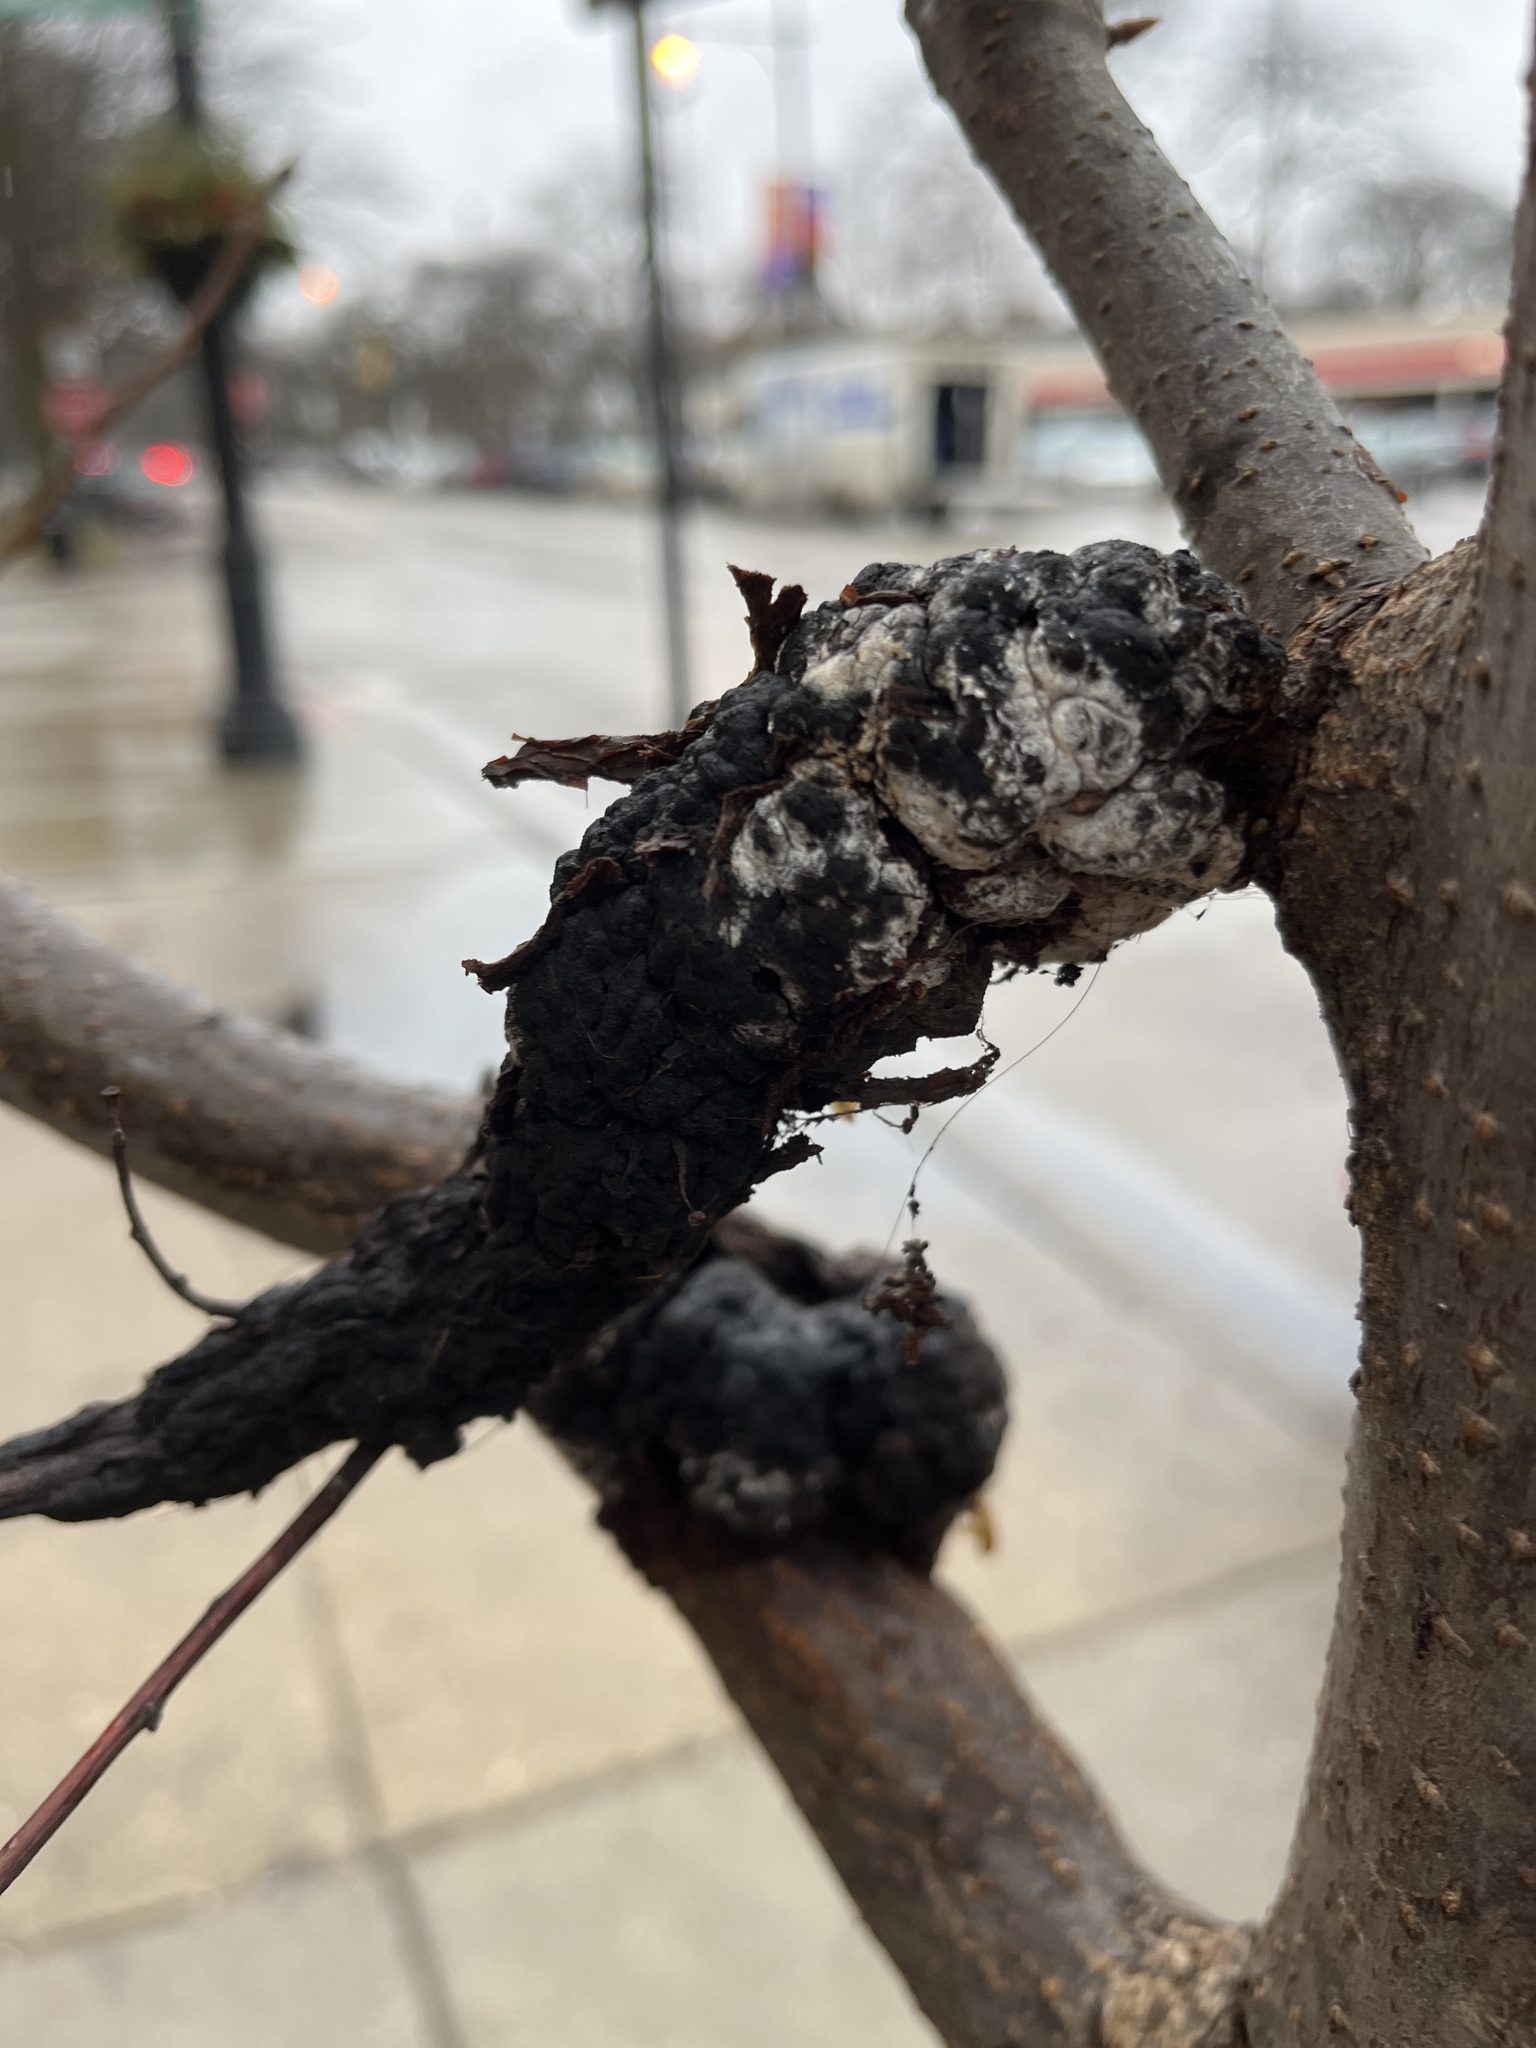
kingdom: Fungi
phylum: Ascomycota
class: Dothideomycetes
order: Venturiales
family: Venturiaceae
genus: Apiosporina
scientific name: Apiosporina morbosa
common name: Black knot
